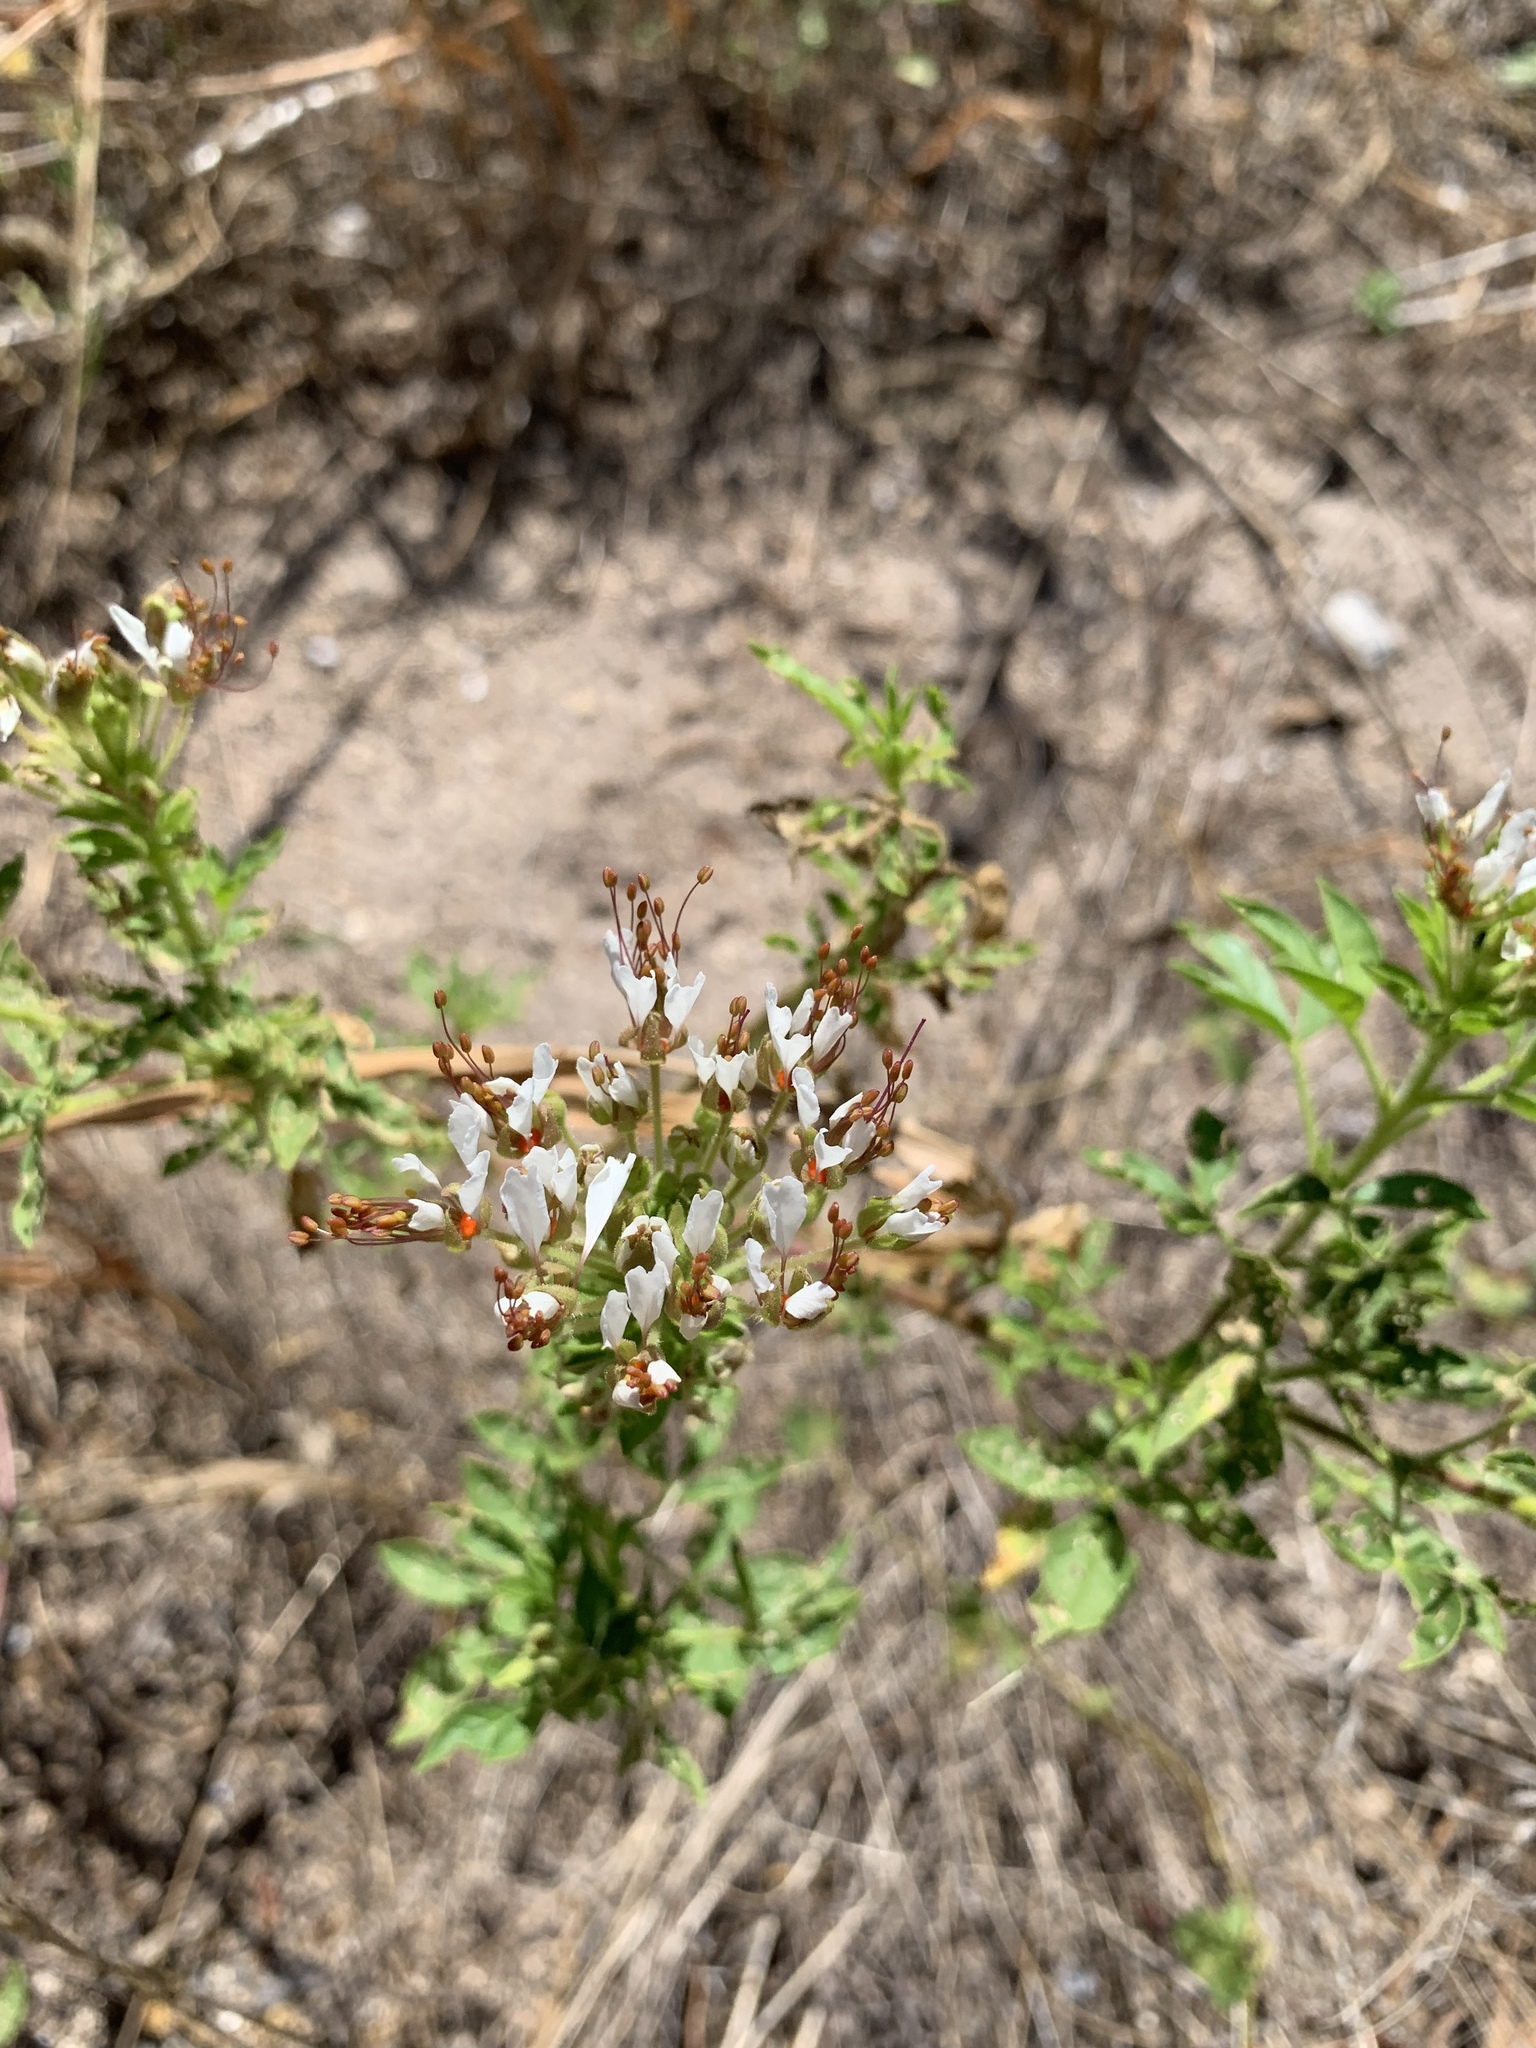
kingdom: Plantae
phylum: Tracheophyta
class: Magnoliopsida
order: Brassicales
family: Cleomaceae
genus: Polanisia
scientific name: Polanisia dodecandra
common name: Clammyweed
